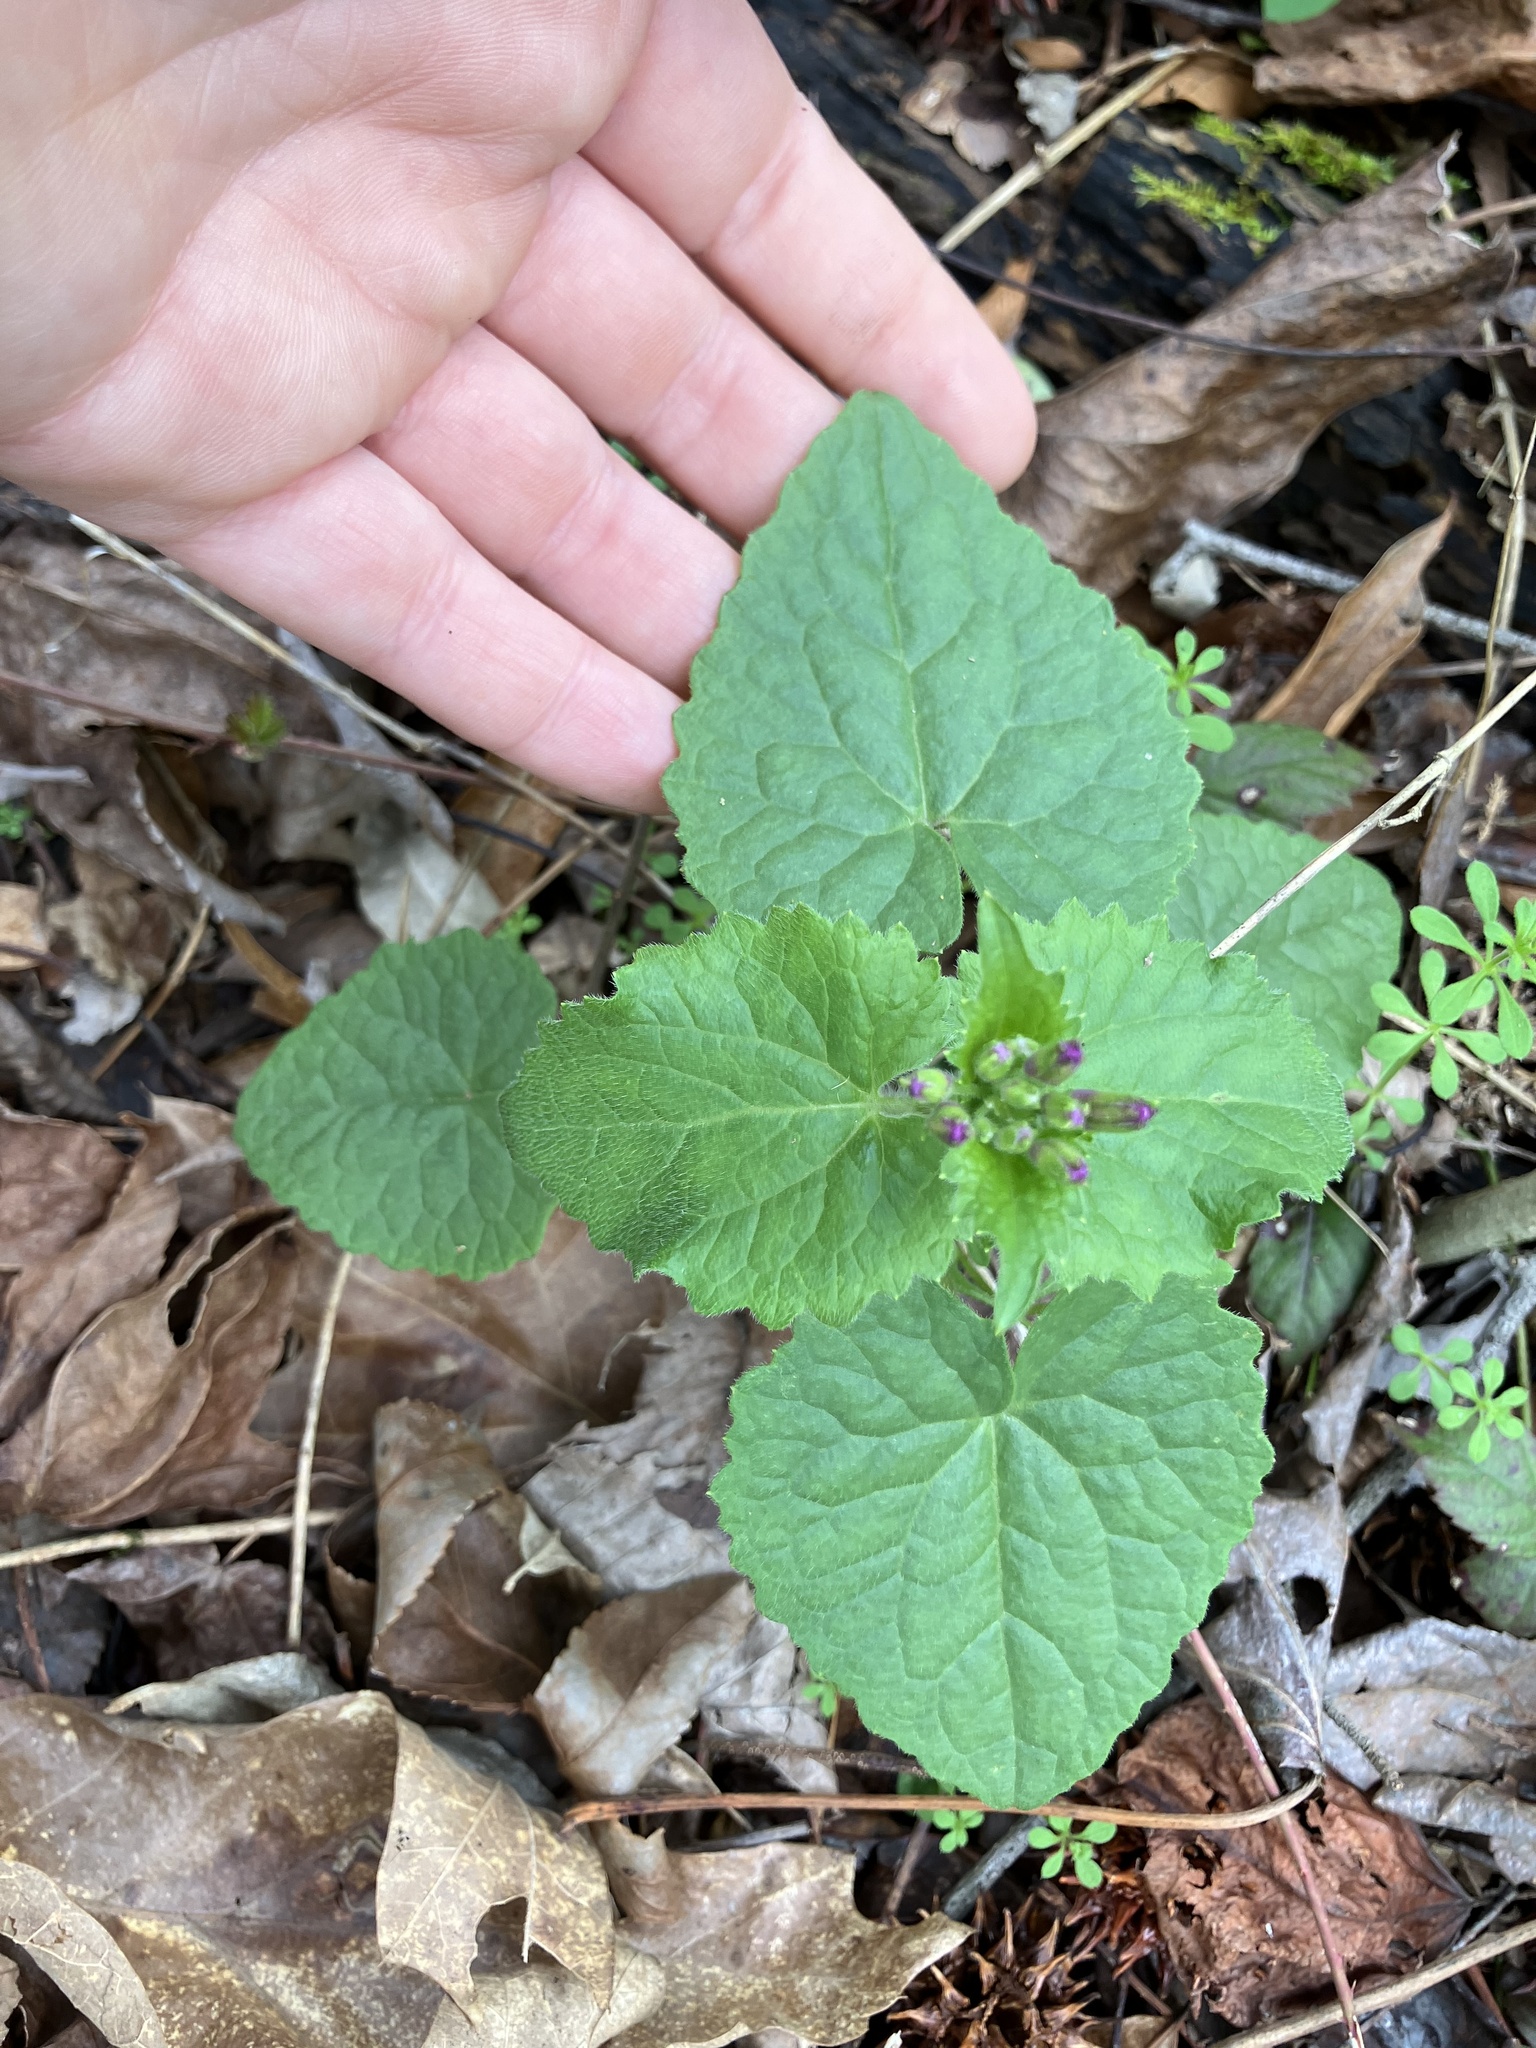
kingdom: Plantae
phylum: Tracheophyta
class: Magnoliopsida
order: Brassicales
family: Brassicaceae
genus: Lunaria
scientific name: Lunaria annua
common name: Honesty
